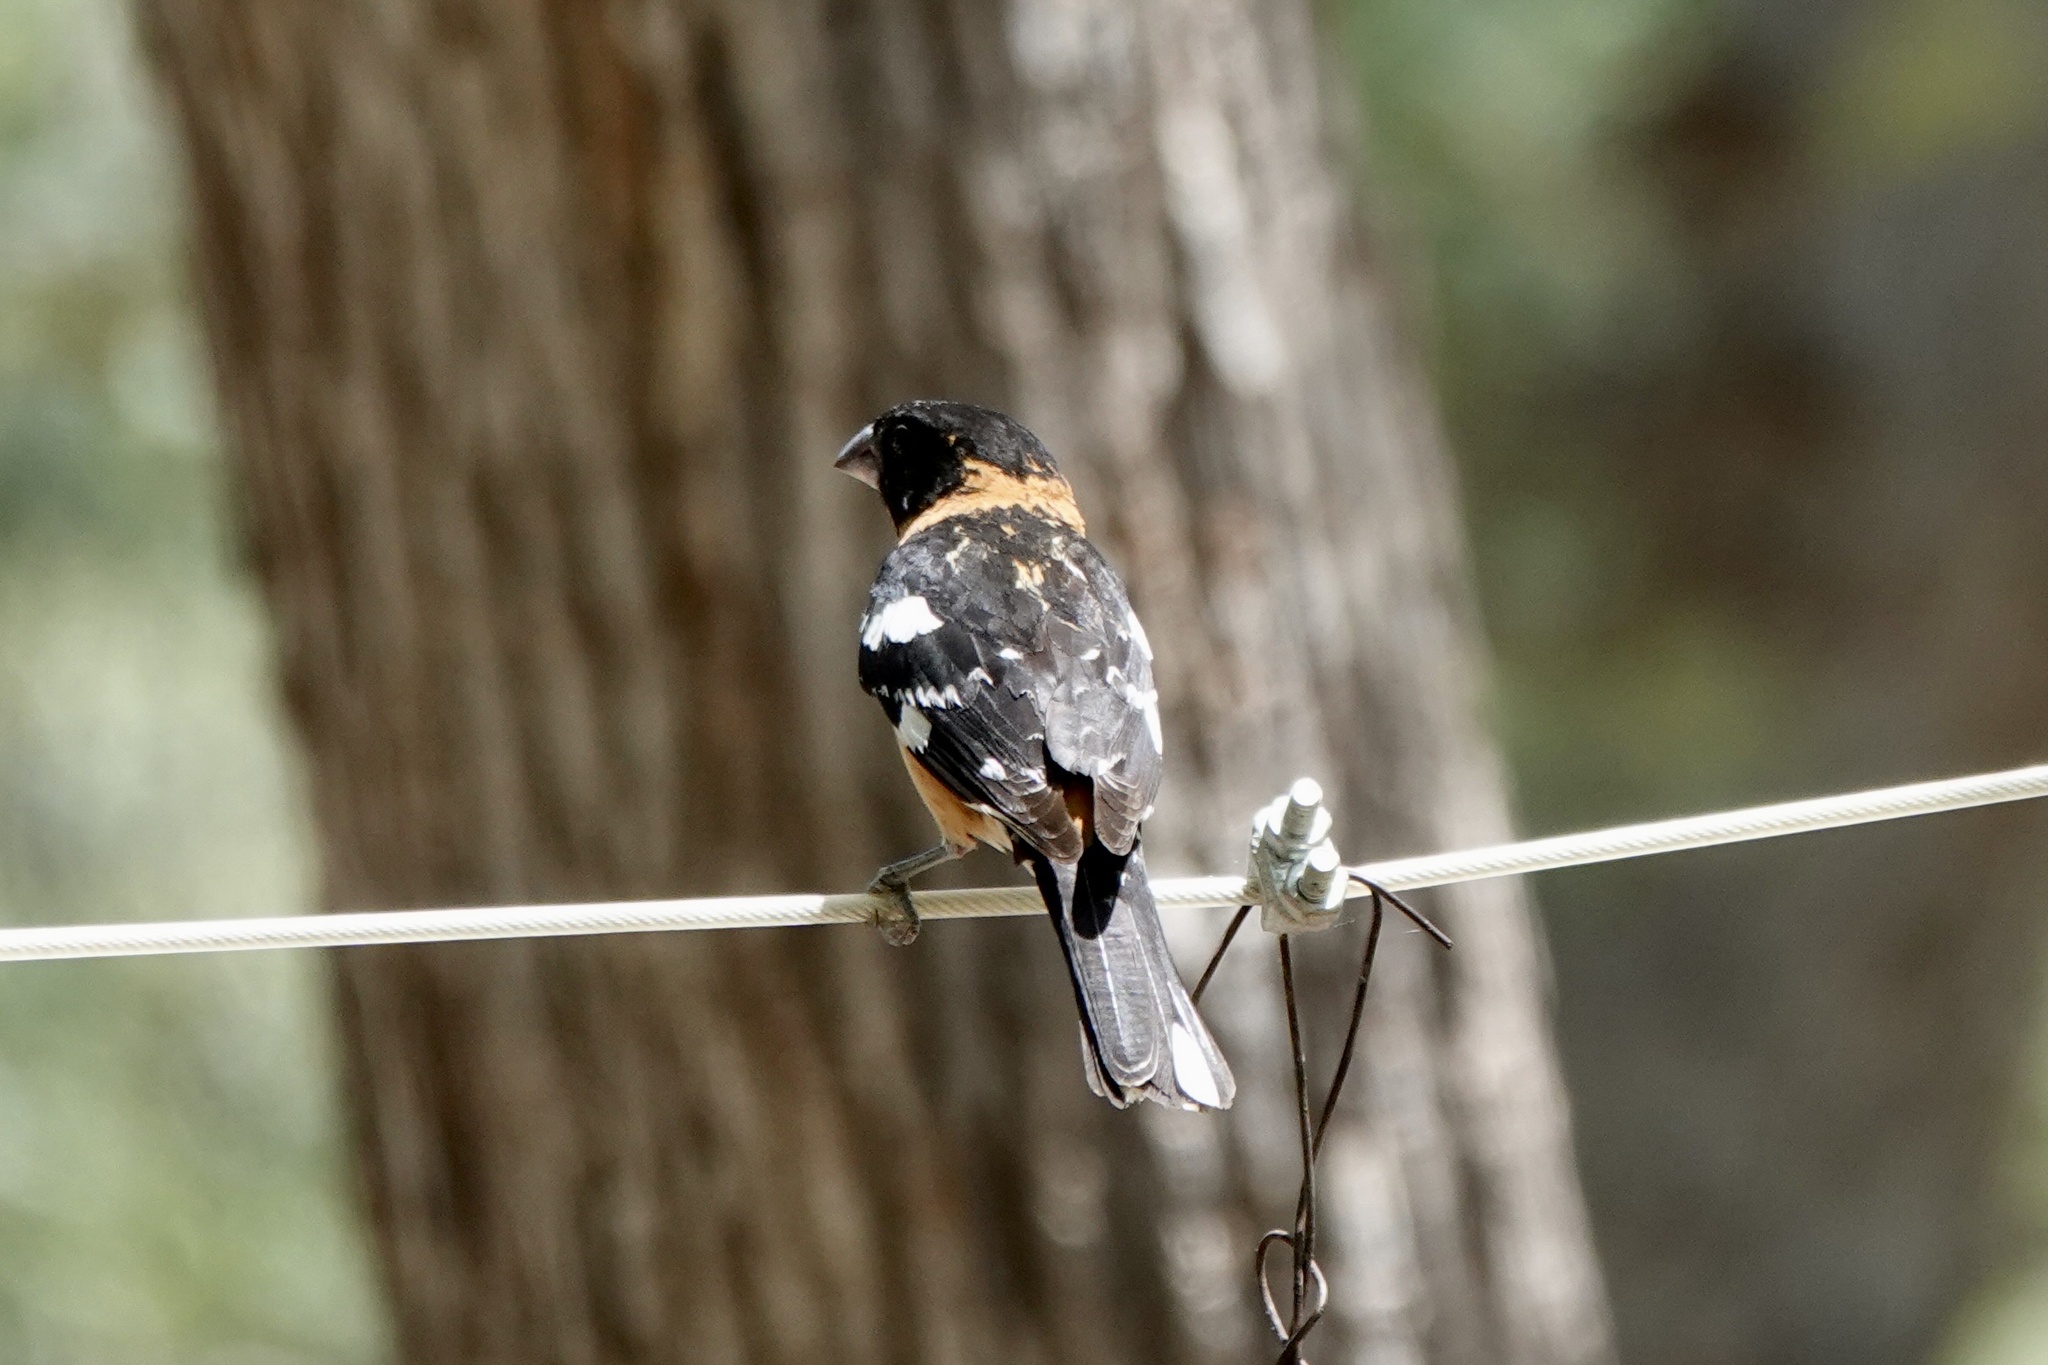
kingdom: Animalia
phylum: Chordata
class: Aves
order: Passeriformes
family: Cardinalidae
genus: Pheucticus
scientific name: Pheucticus melanocephalus
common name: Black-headed grosbeak
